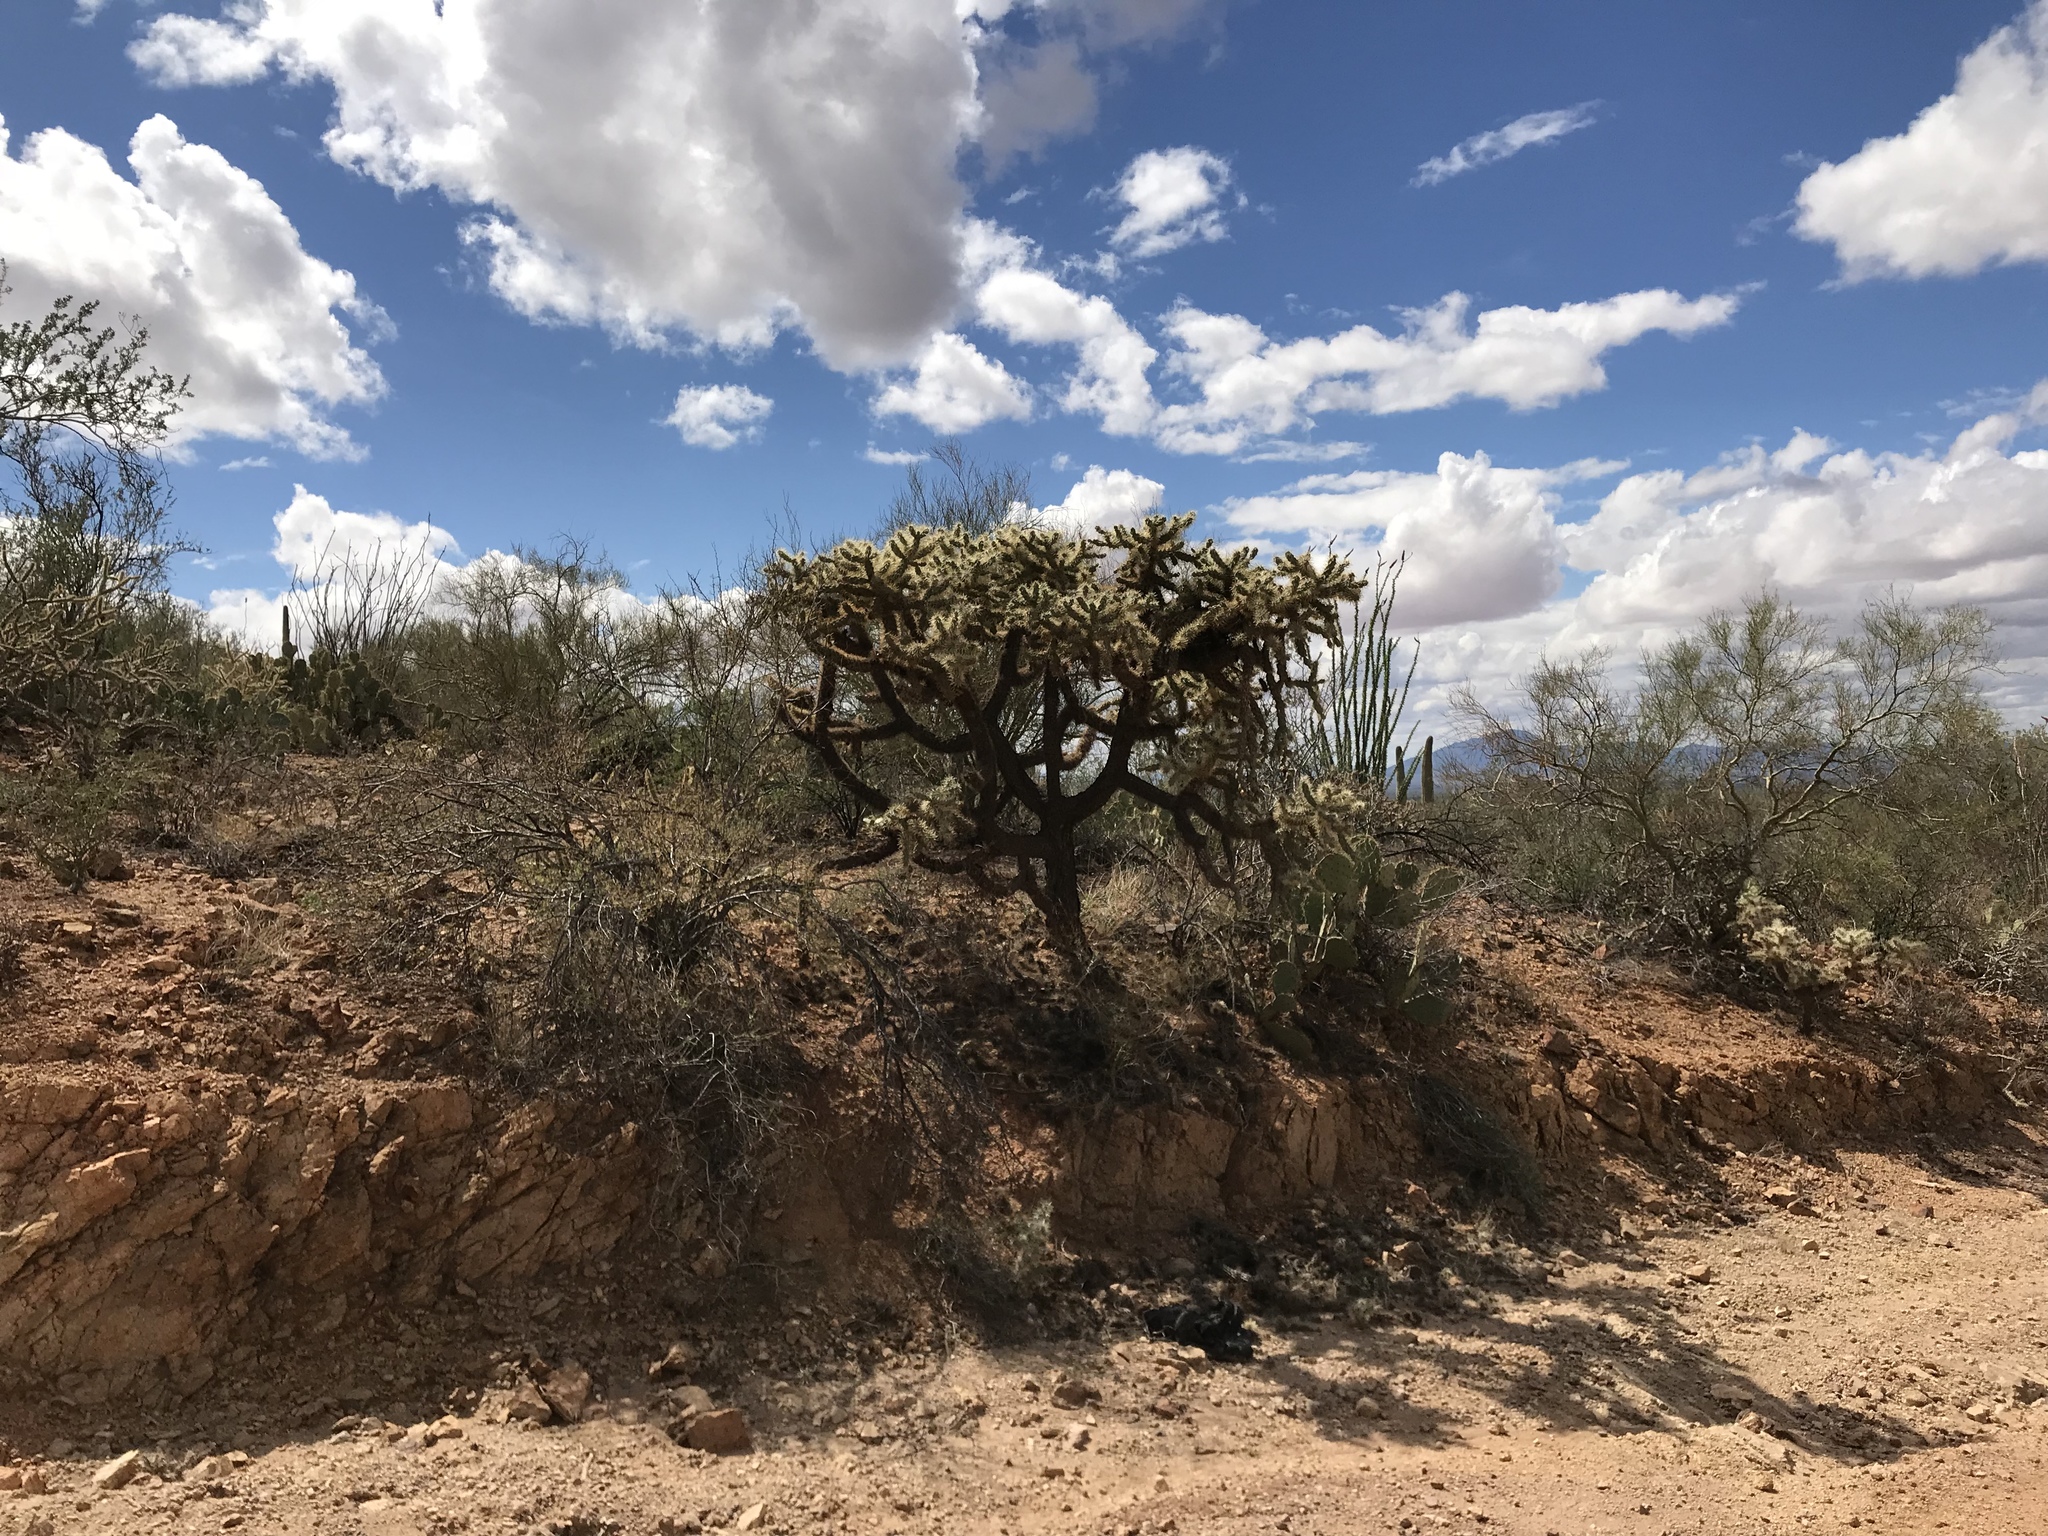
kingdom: Plantae
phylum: Tracheophyta
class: Magnoliopsida
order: Caryophyllales
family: Cactaceae
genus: Cylindropuntia
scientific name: Cylindropuntia fulgida
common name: Jumping cholla
